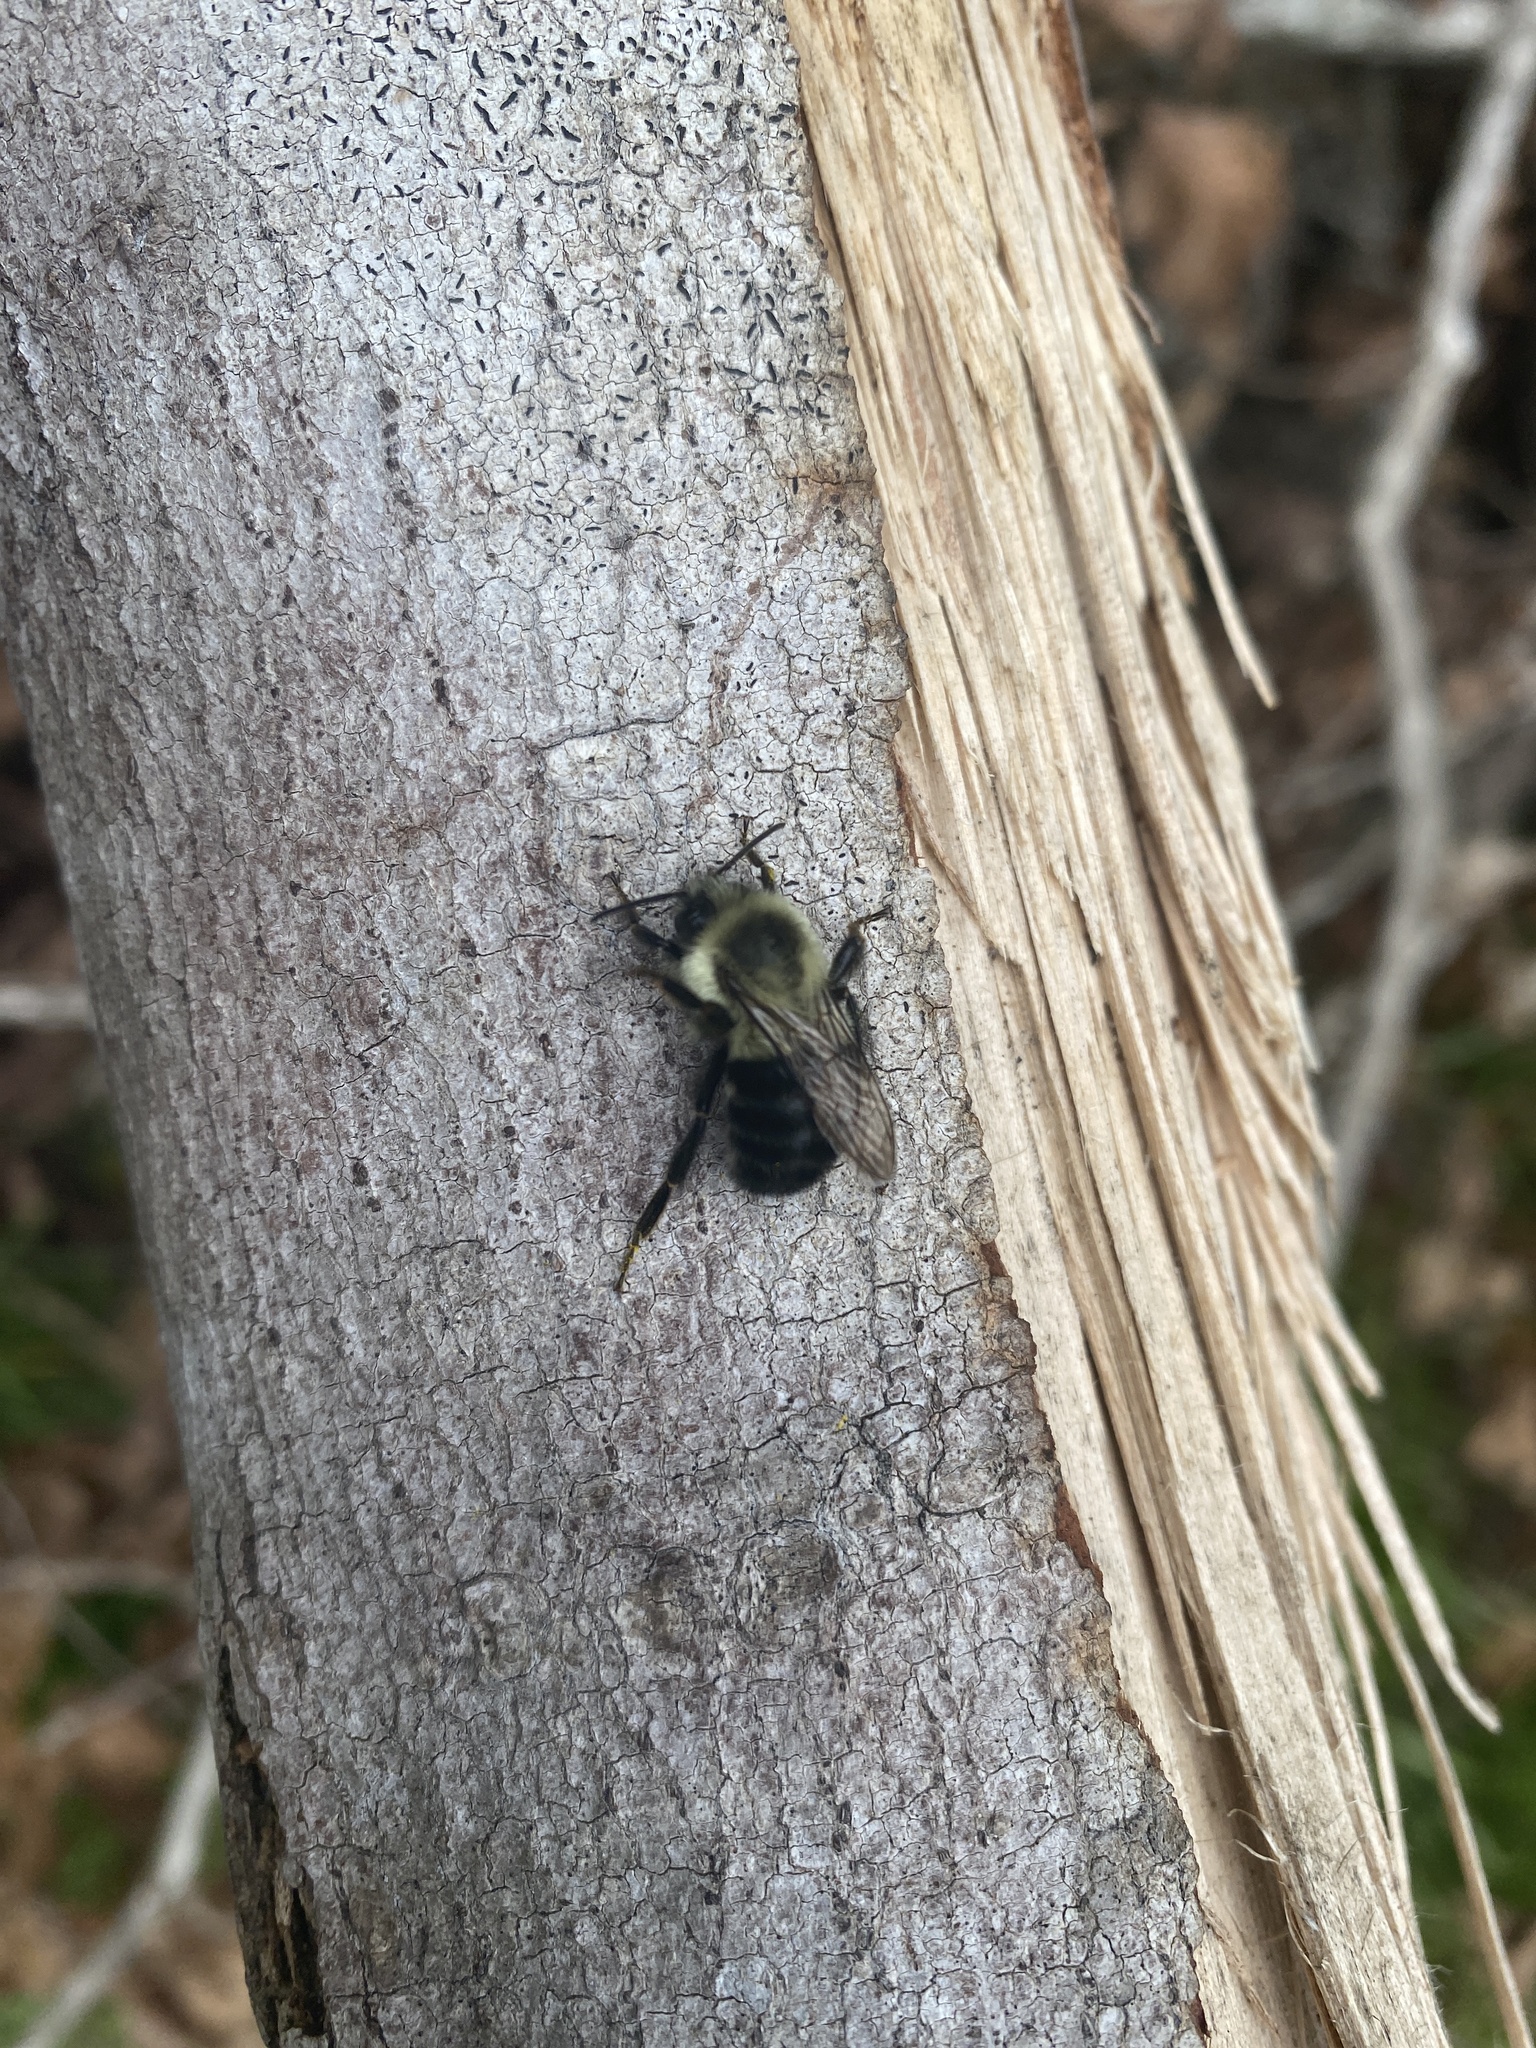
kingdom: Animalia
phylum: Arthropoda
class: Insecta
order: Hymenoptera
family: Apidae
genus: Bombus
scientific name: Bombus impatiens
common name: Common eastern bumble bee
